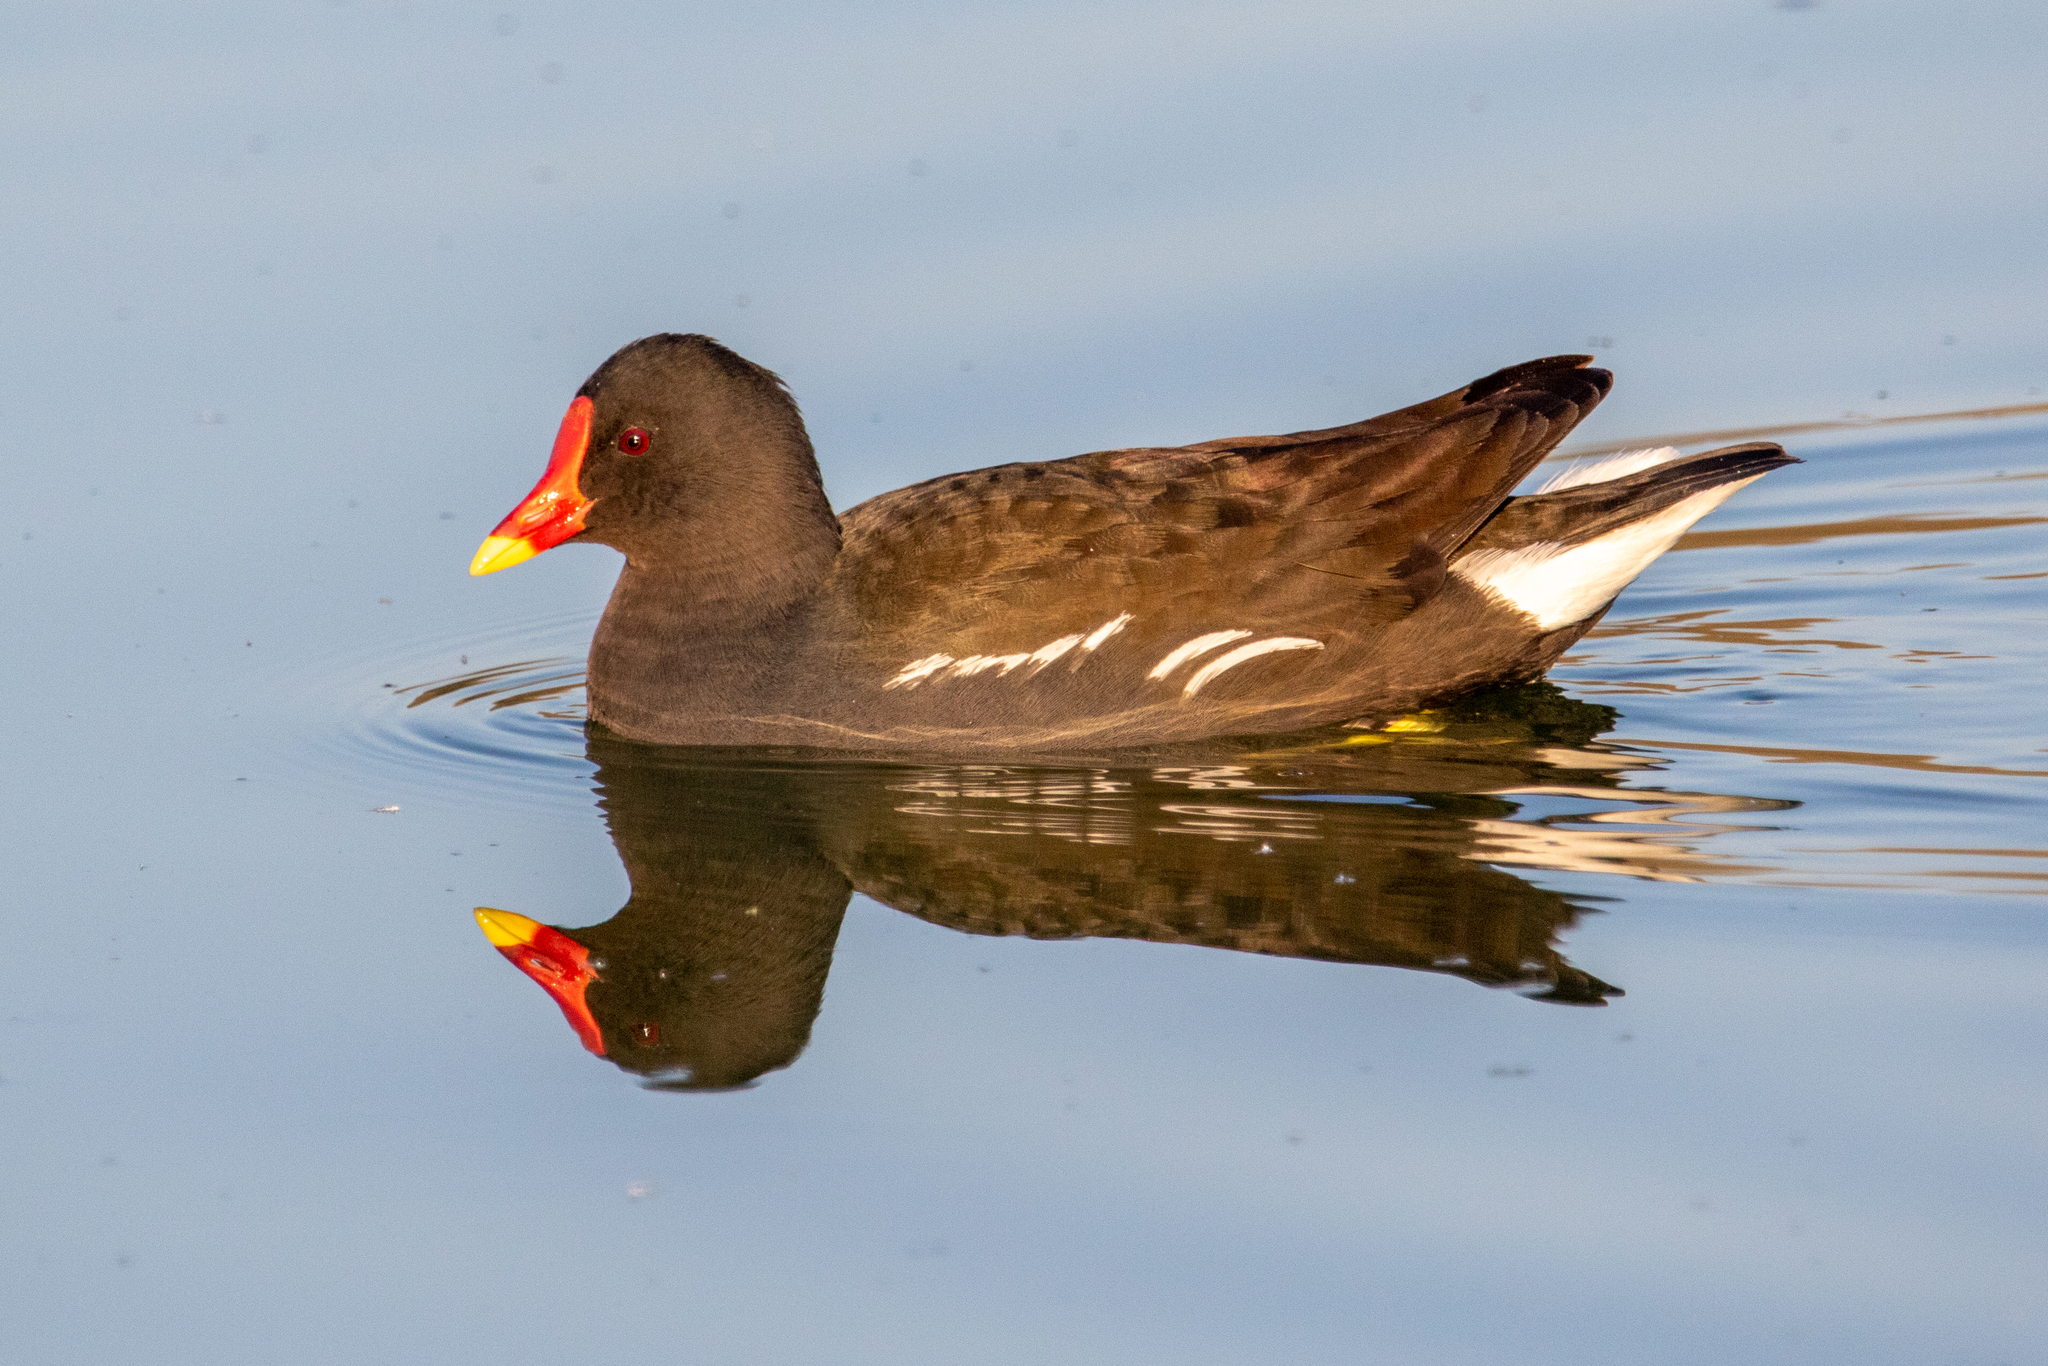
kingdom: Animalia
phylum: Chordata
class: Aves
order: Gruiformes
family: Rallidae
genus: Gallinula
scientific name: Gallinula chloropus
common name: Common moorhen
